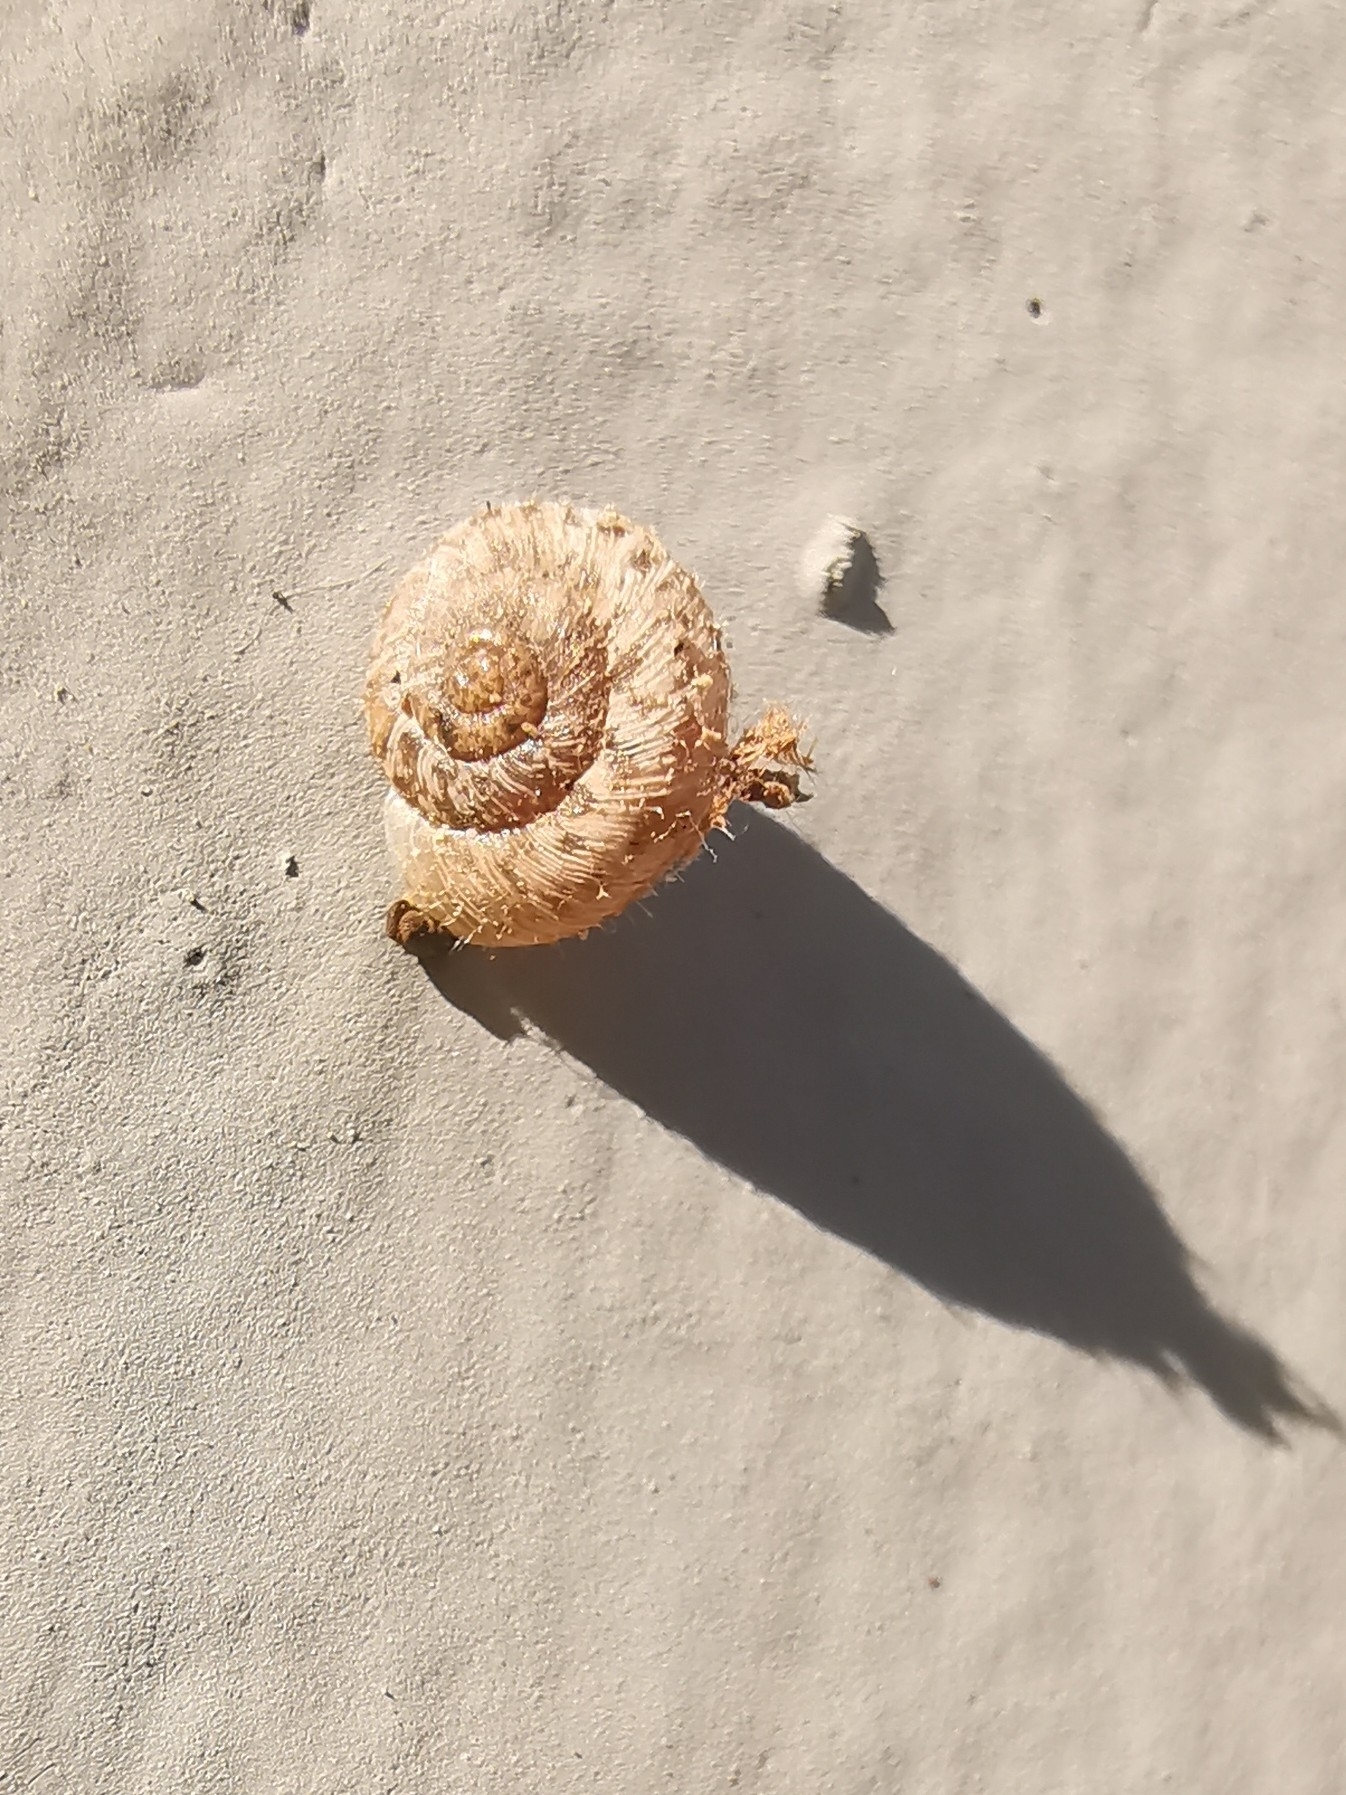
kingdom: Animalia
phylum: Mollusca
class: Gastropoda
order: Stylommatophora
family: Geomitridae
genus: Xerotricha
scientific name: Xerotricha conspurcata
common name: Snail
